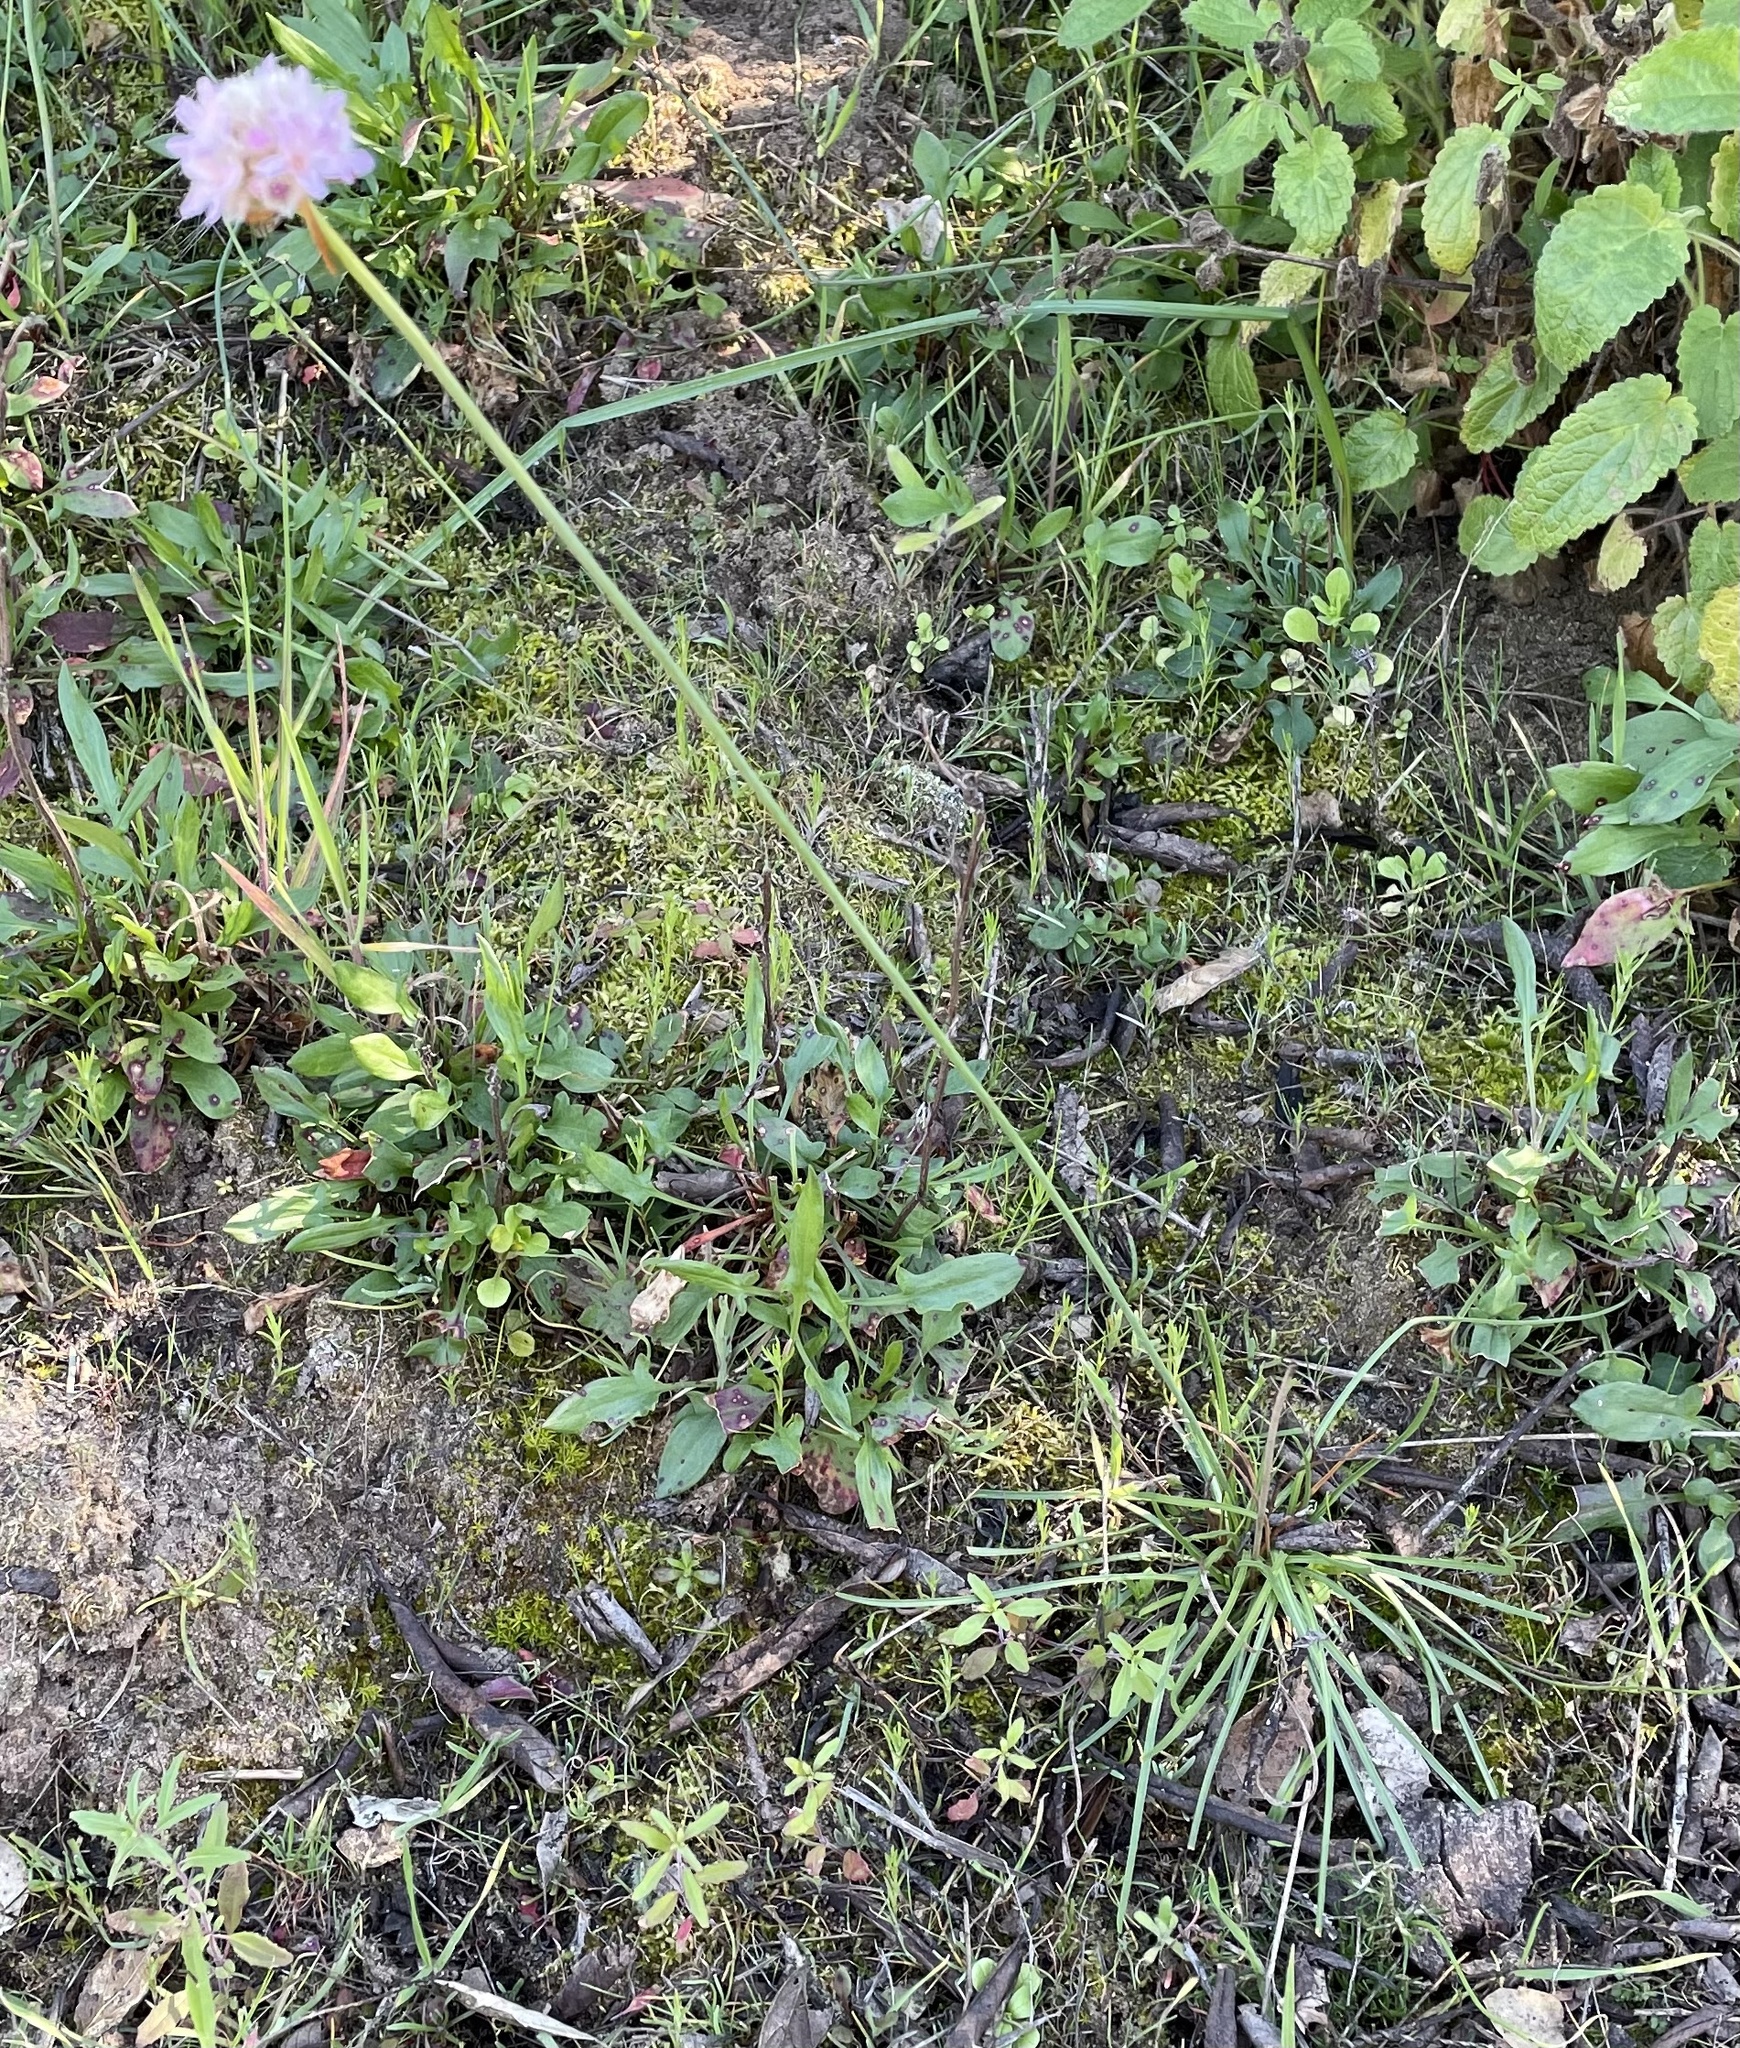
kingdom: Plantae
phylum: Tracheophyta
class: Magnoliopsida
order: Caryophyllales
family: Plumbaginaceae
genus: Armeria
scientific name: Armeria maritima
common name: Thrift
